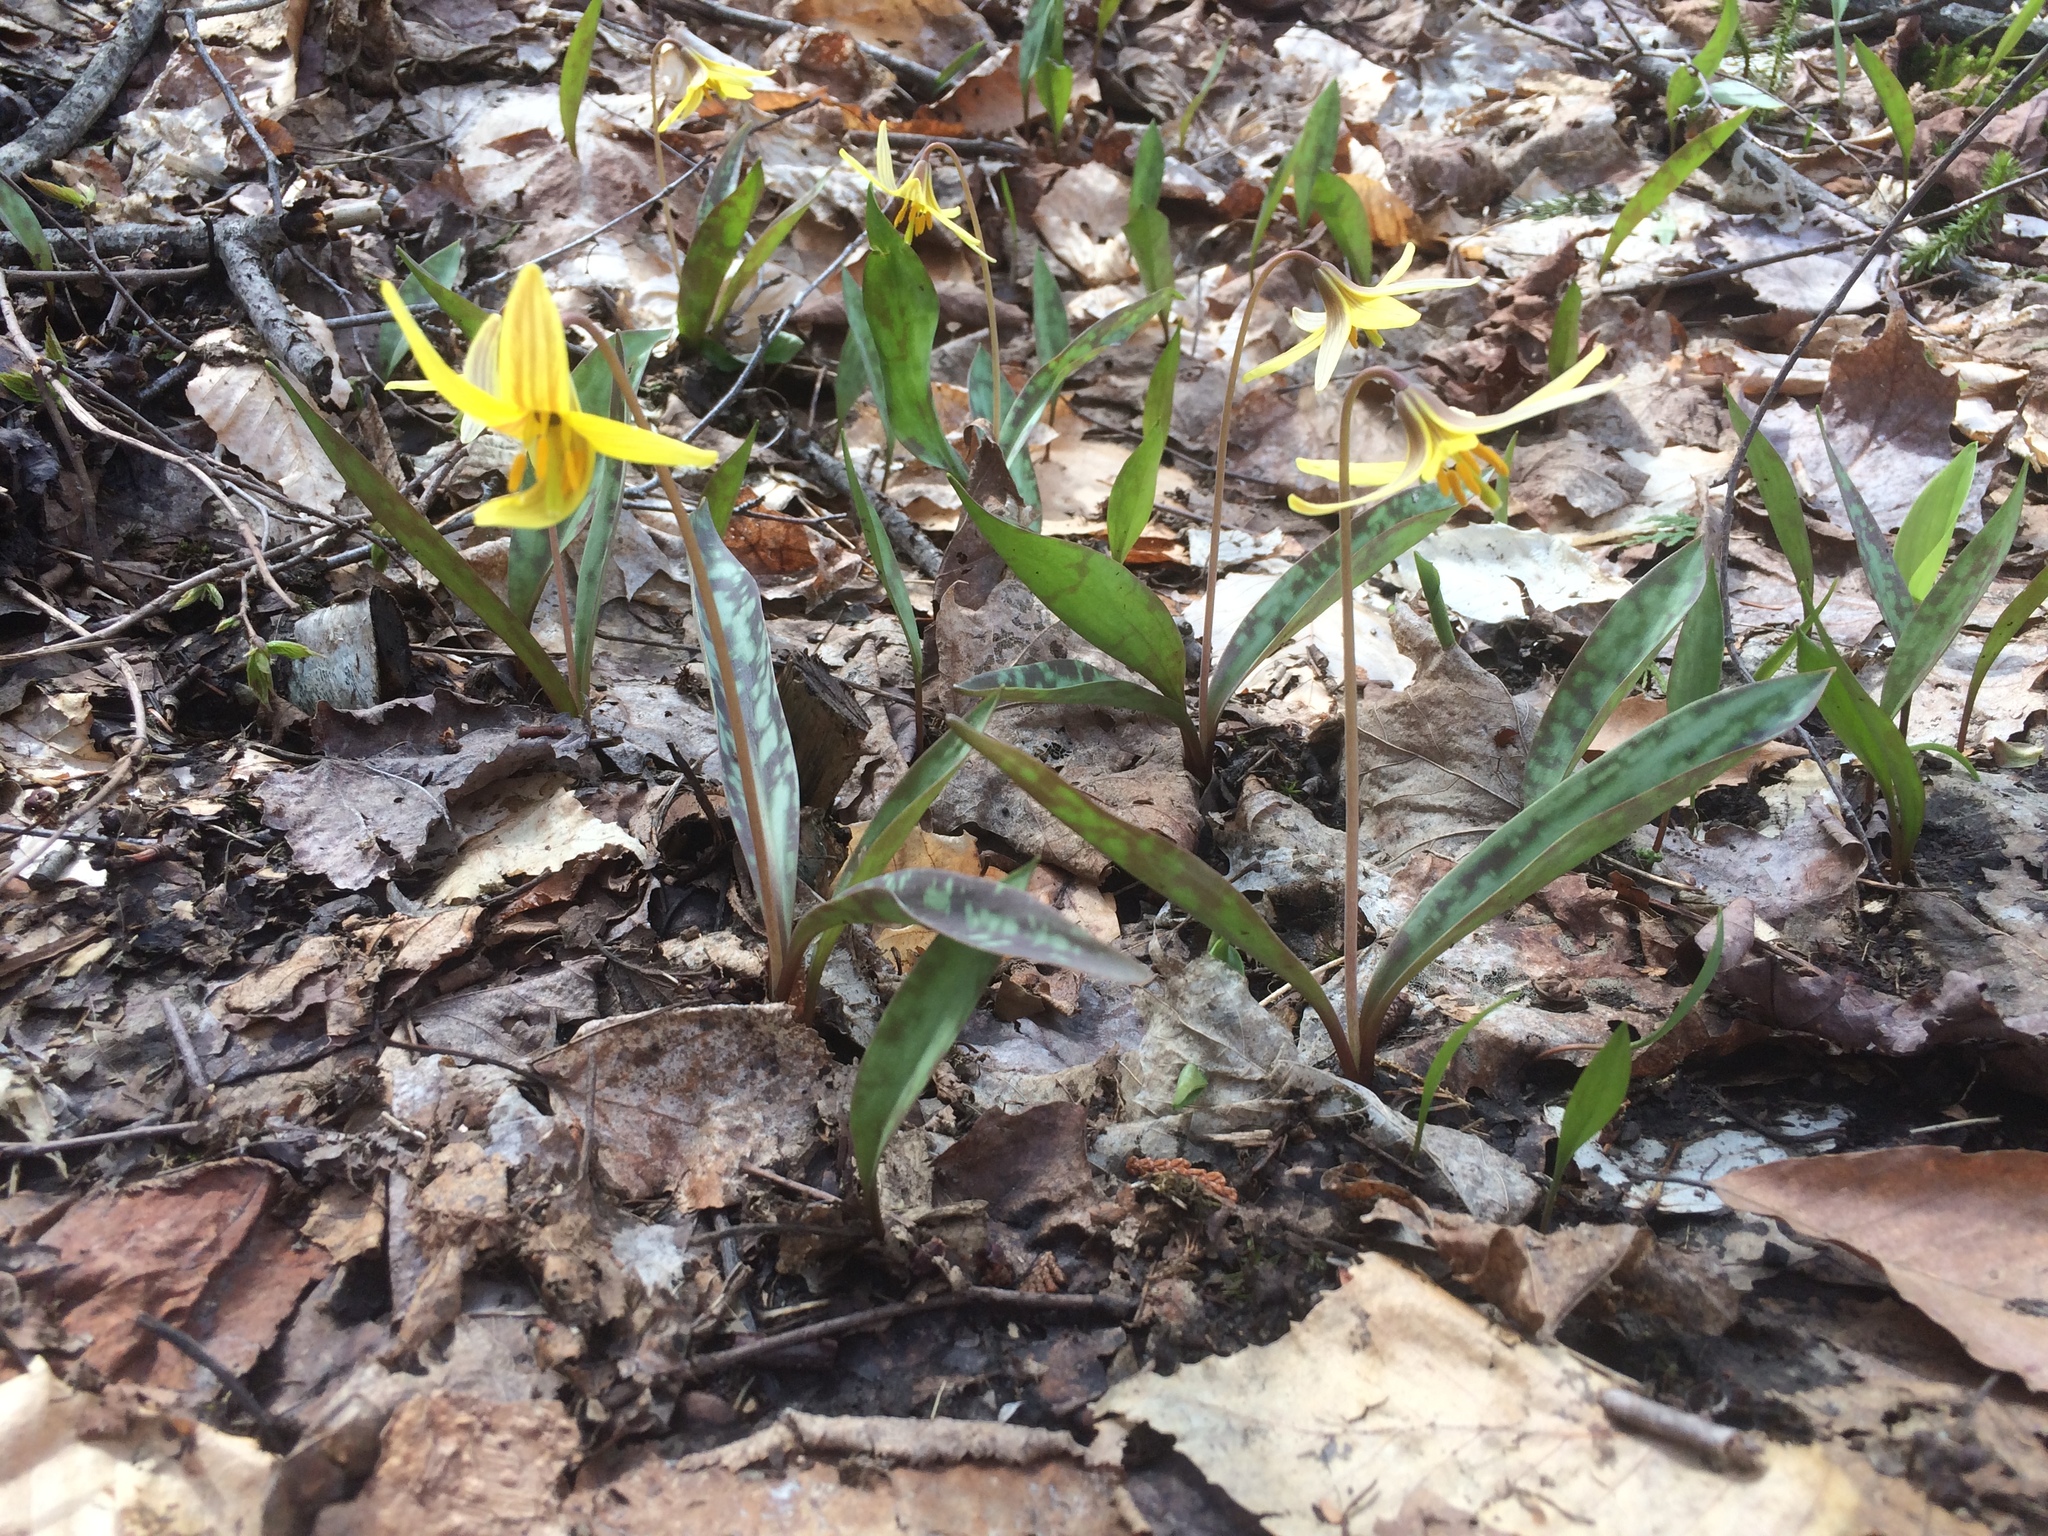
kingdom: Plantae
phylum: Tracheophyta
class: Liliopsida
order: Liliales
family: Liliaceae
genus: Erythronium
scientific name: Erythronium americanum
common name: Yellow adder's-tongue
